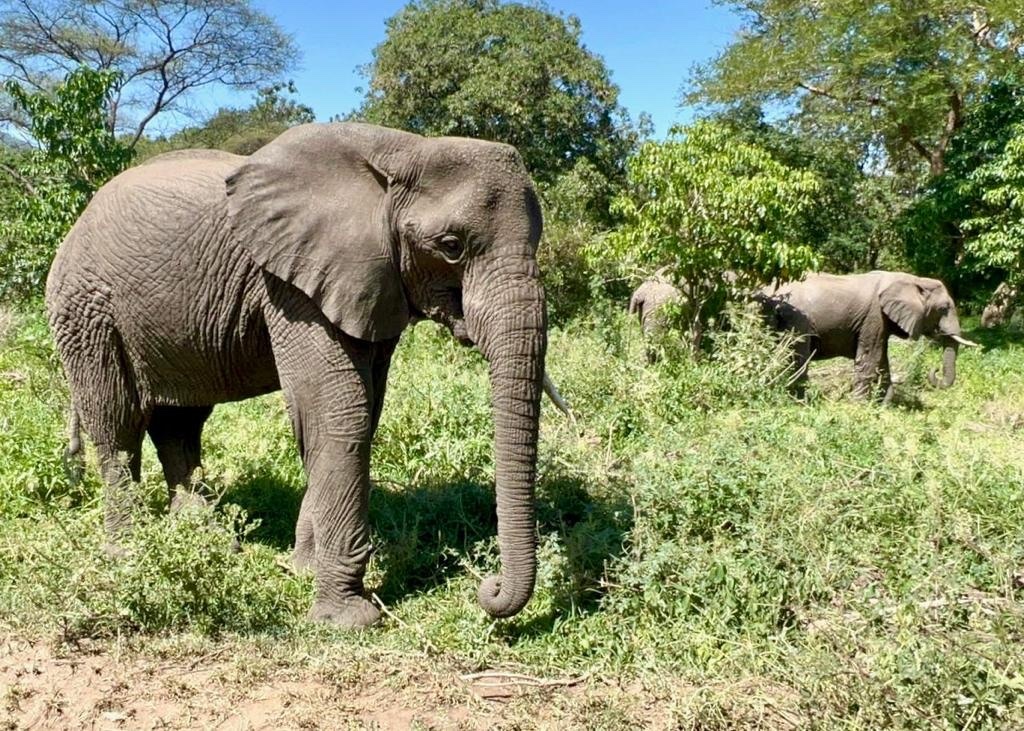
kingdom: Animalia
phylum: Chordata
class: Mammalia
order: Proboscidea
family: Elephantidae
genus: Loxodonta
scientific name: Loxodonta africana
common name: African elephant
